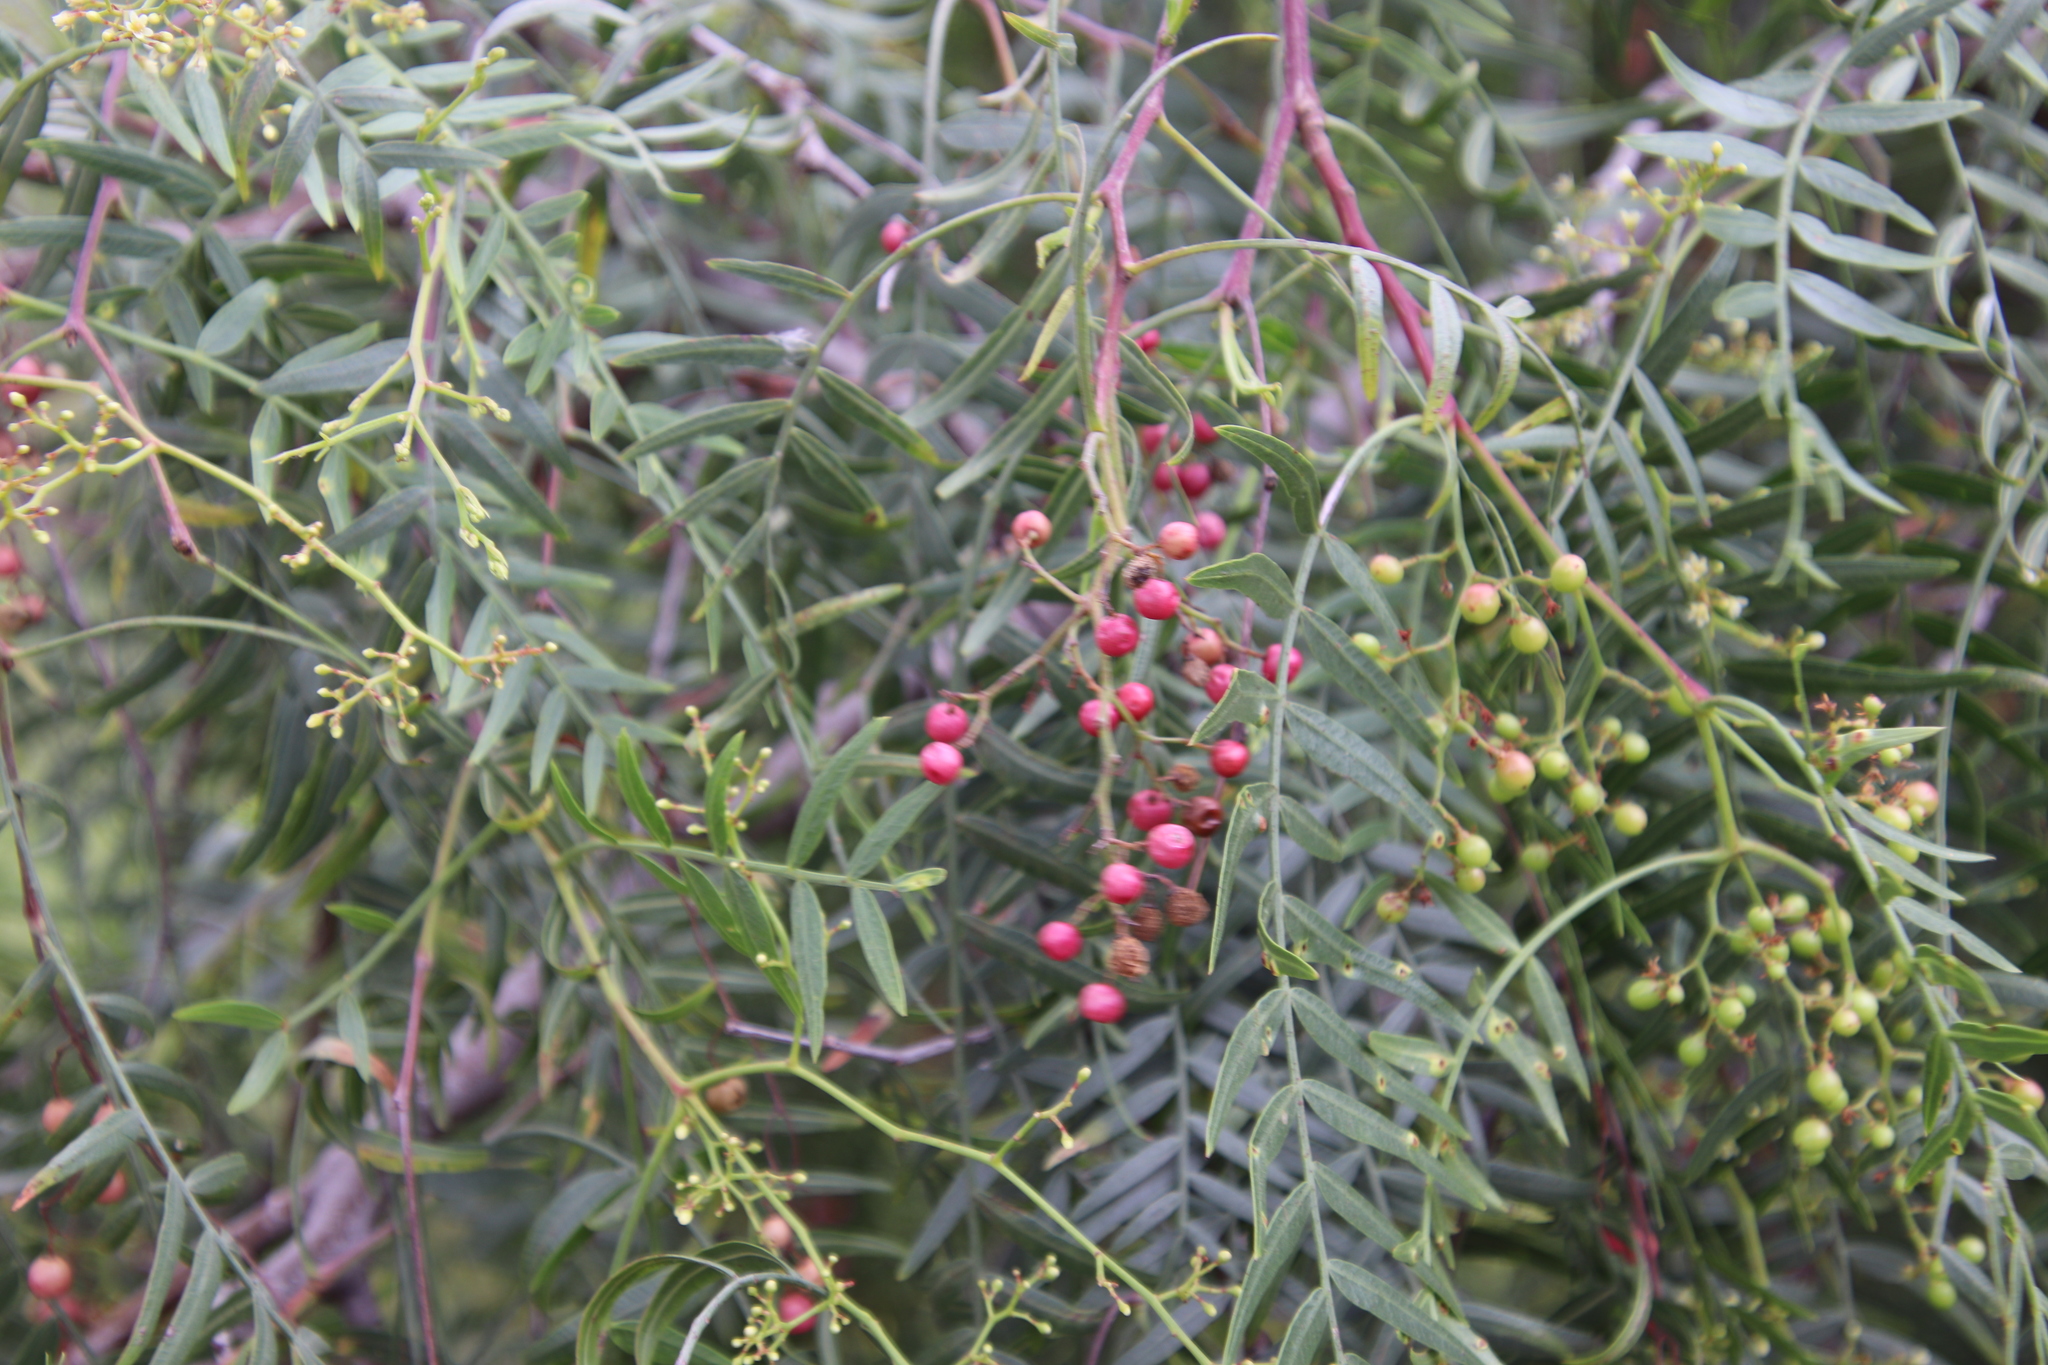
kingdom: Plantae
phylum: Tracheophyta
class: Magnoliopsida
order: Sapindales
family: Anacardiaceae
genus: Schinus
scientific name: Schinus molle
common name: Peruvian peppertree
